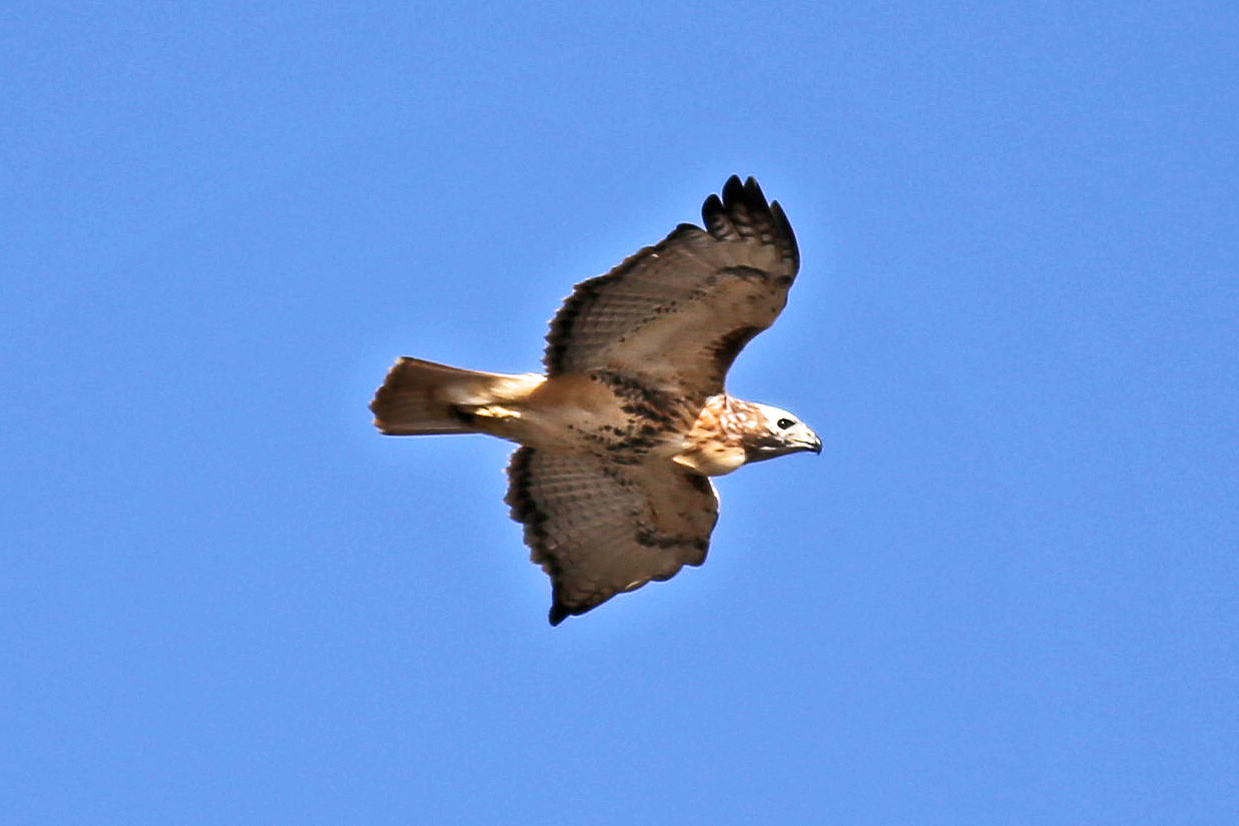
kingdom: Animalia
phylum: Chordata
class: Aves
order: Accipitriformes
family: Accipitridae
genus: Buteo
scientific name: Buteo jamaicensis
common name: Red-tailed hawk
